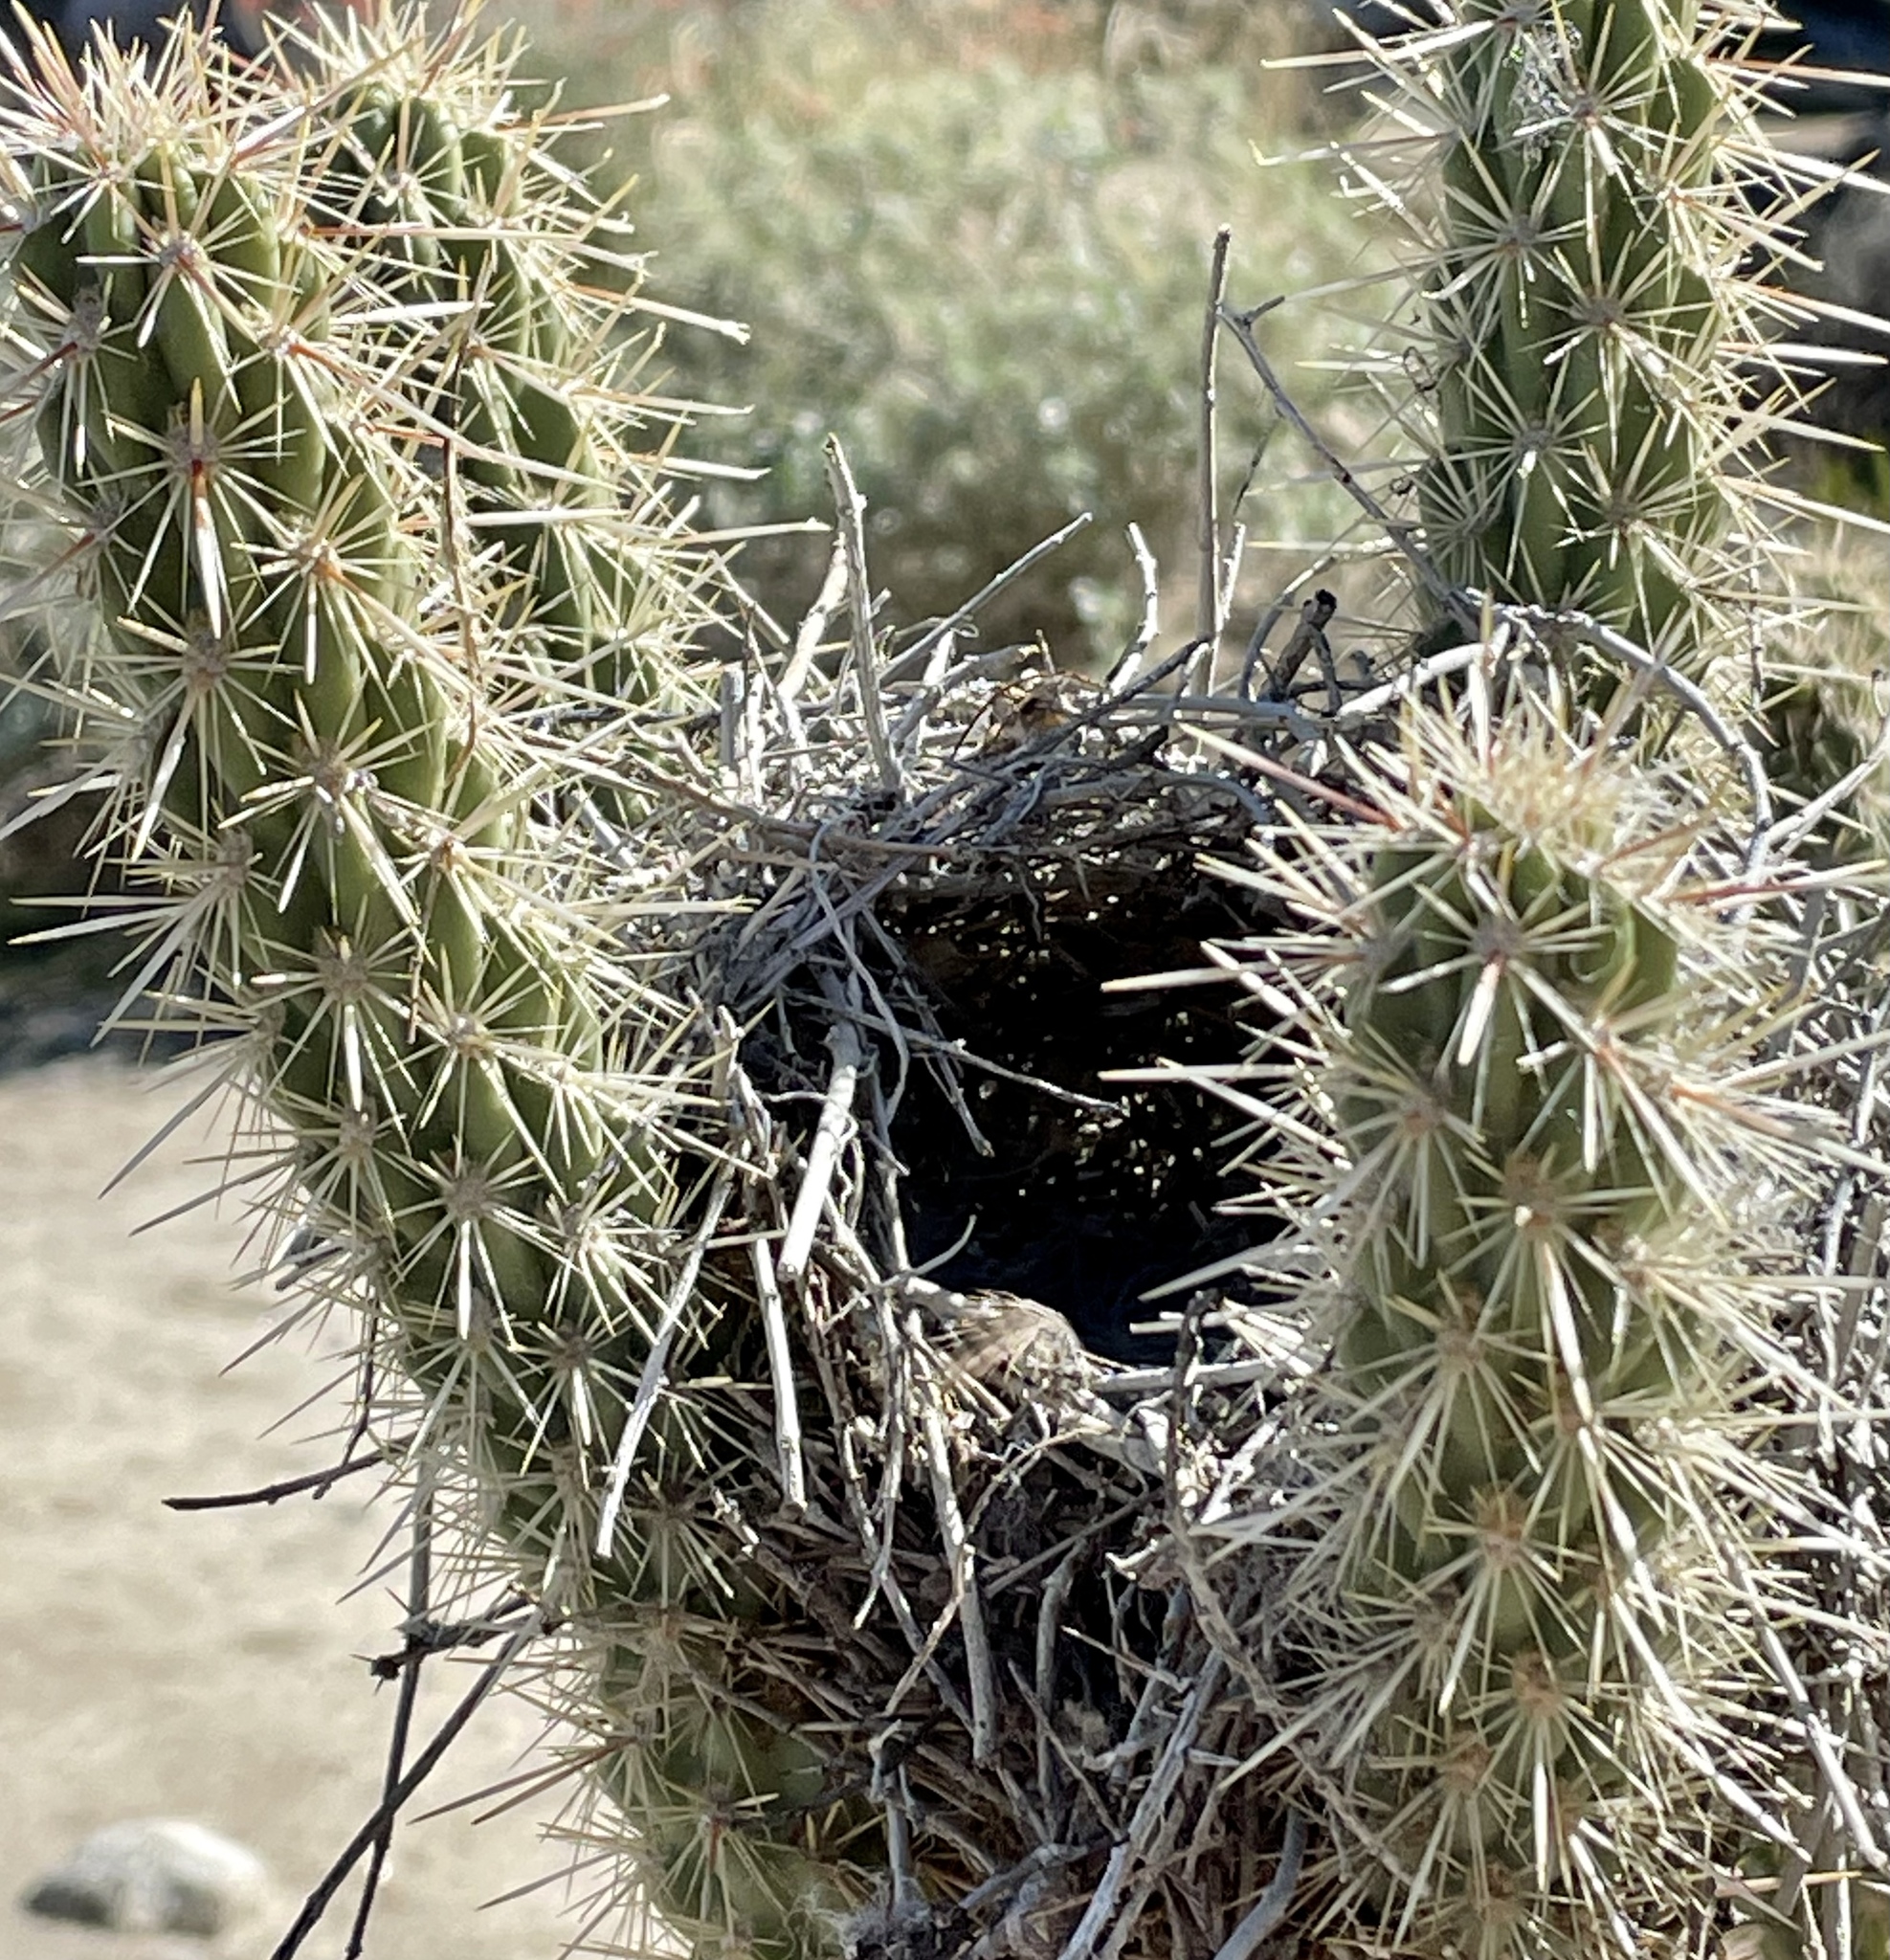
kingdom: Animalia
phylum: Chordata
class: Aves
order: Passeriformes
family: Troglodytidae
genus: Campylorhynchus
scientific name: Campylorhynchus brunneicapillus
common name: Cactus wren
